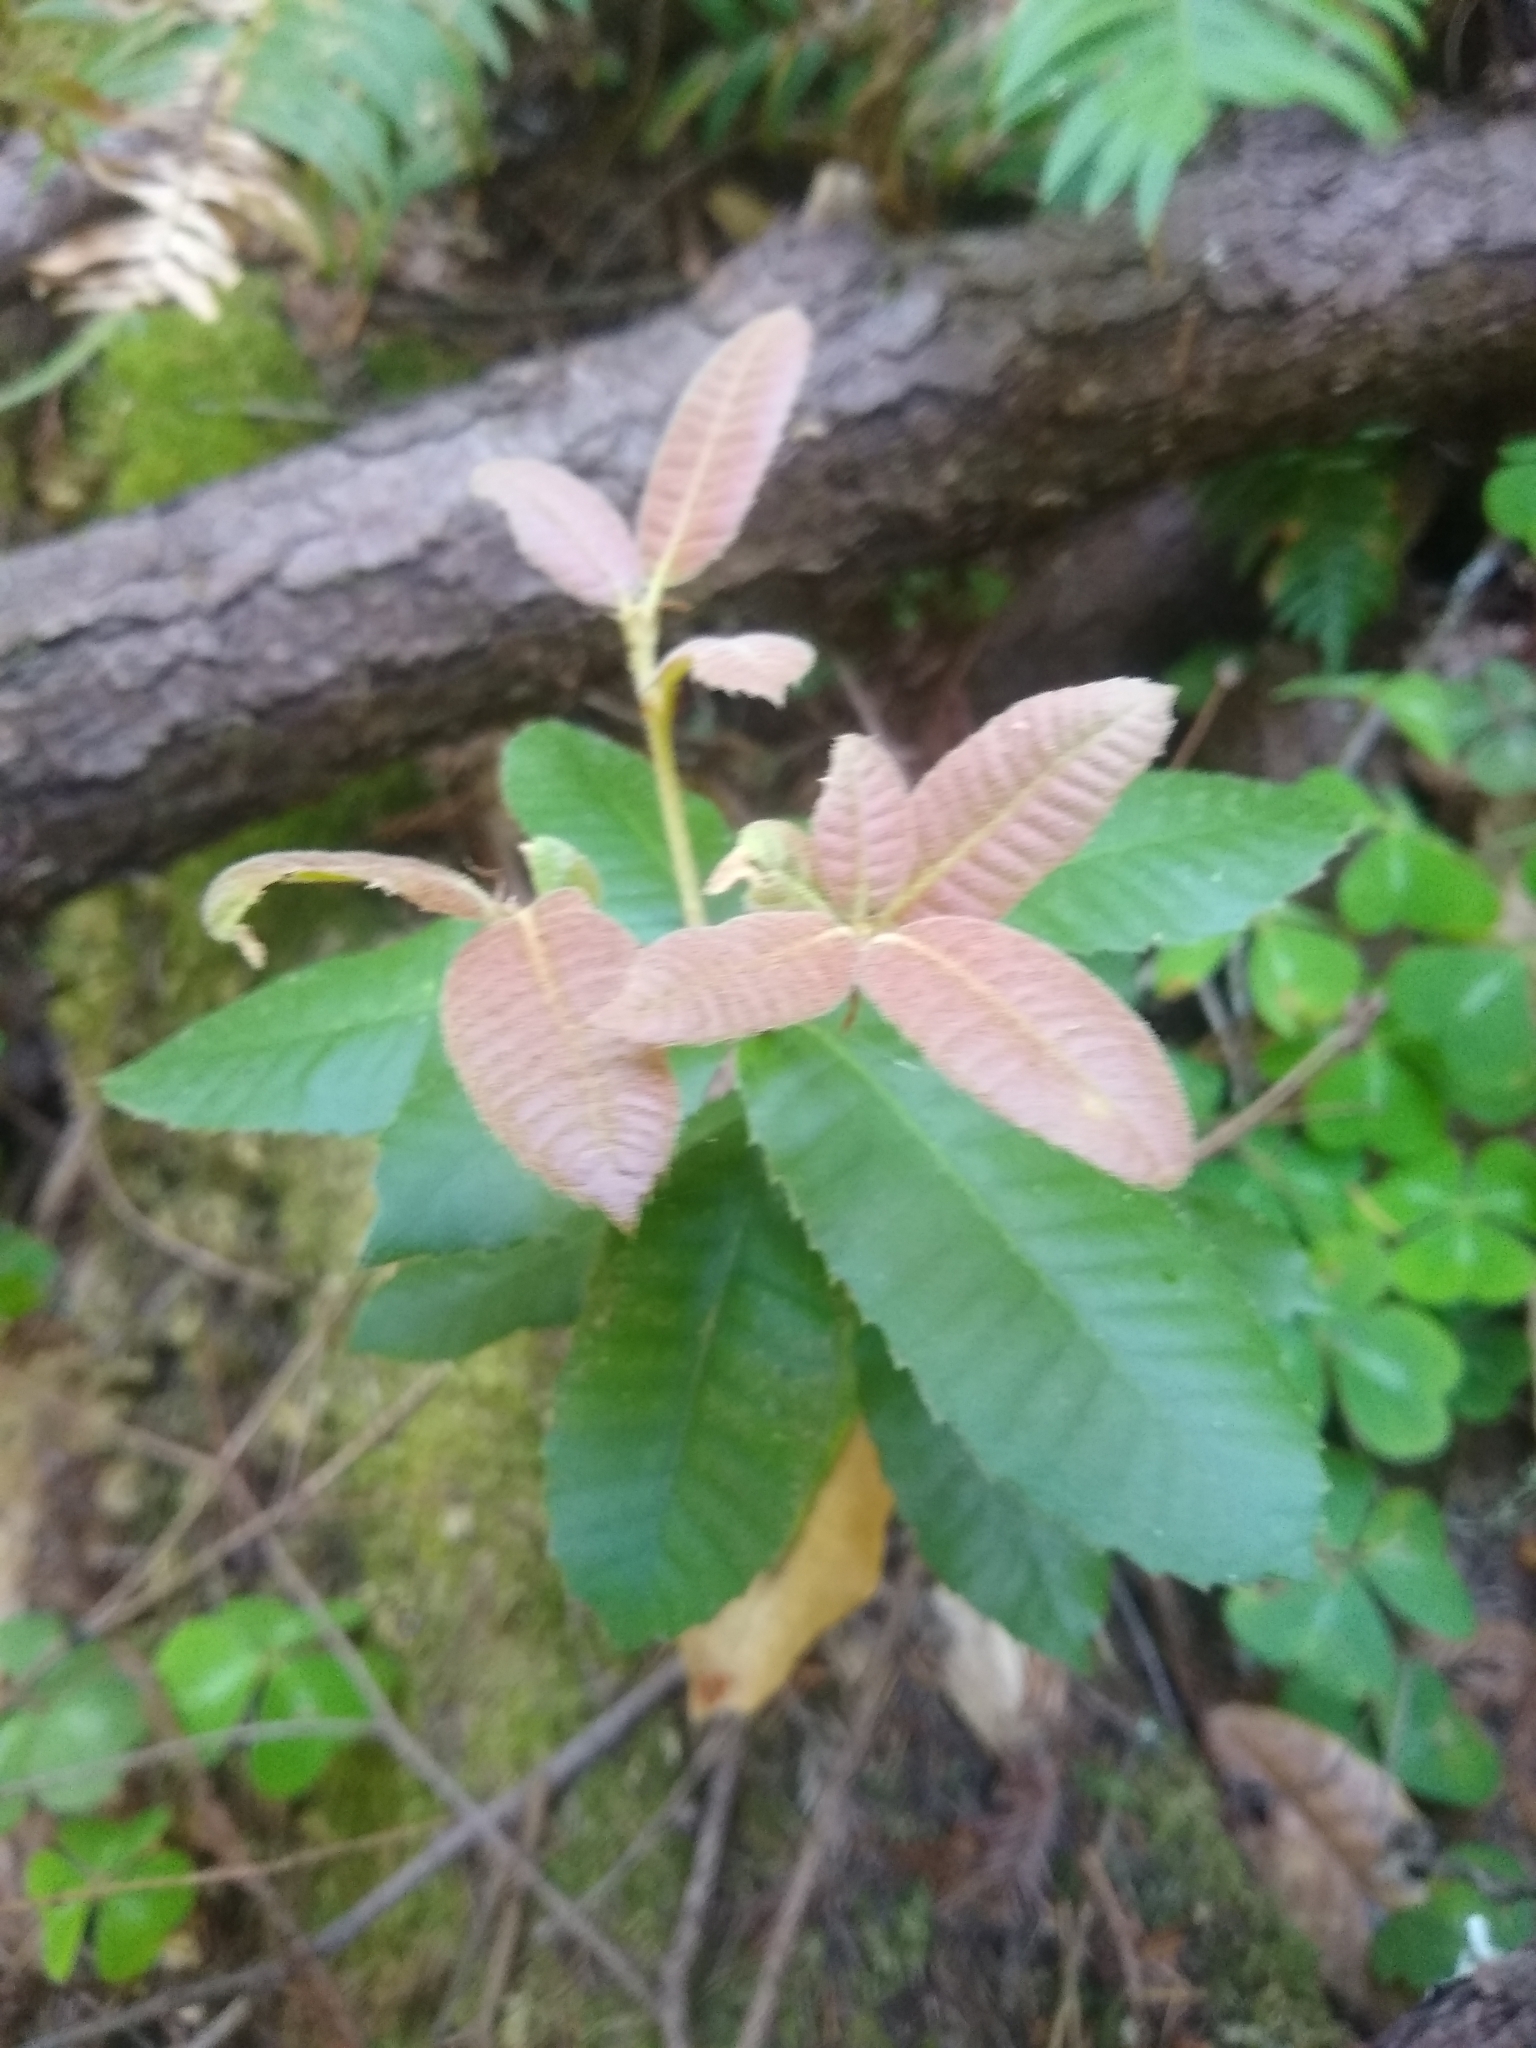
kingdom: Plantae
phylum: Tracheophyta
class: Magnoliopsida
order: Fagales
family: Fagaceae
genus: Notholithocarpus
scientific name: Notholithocarpus densiflorus
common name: Tan bark oak
